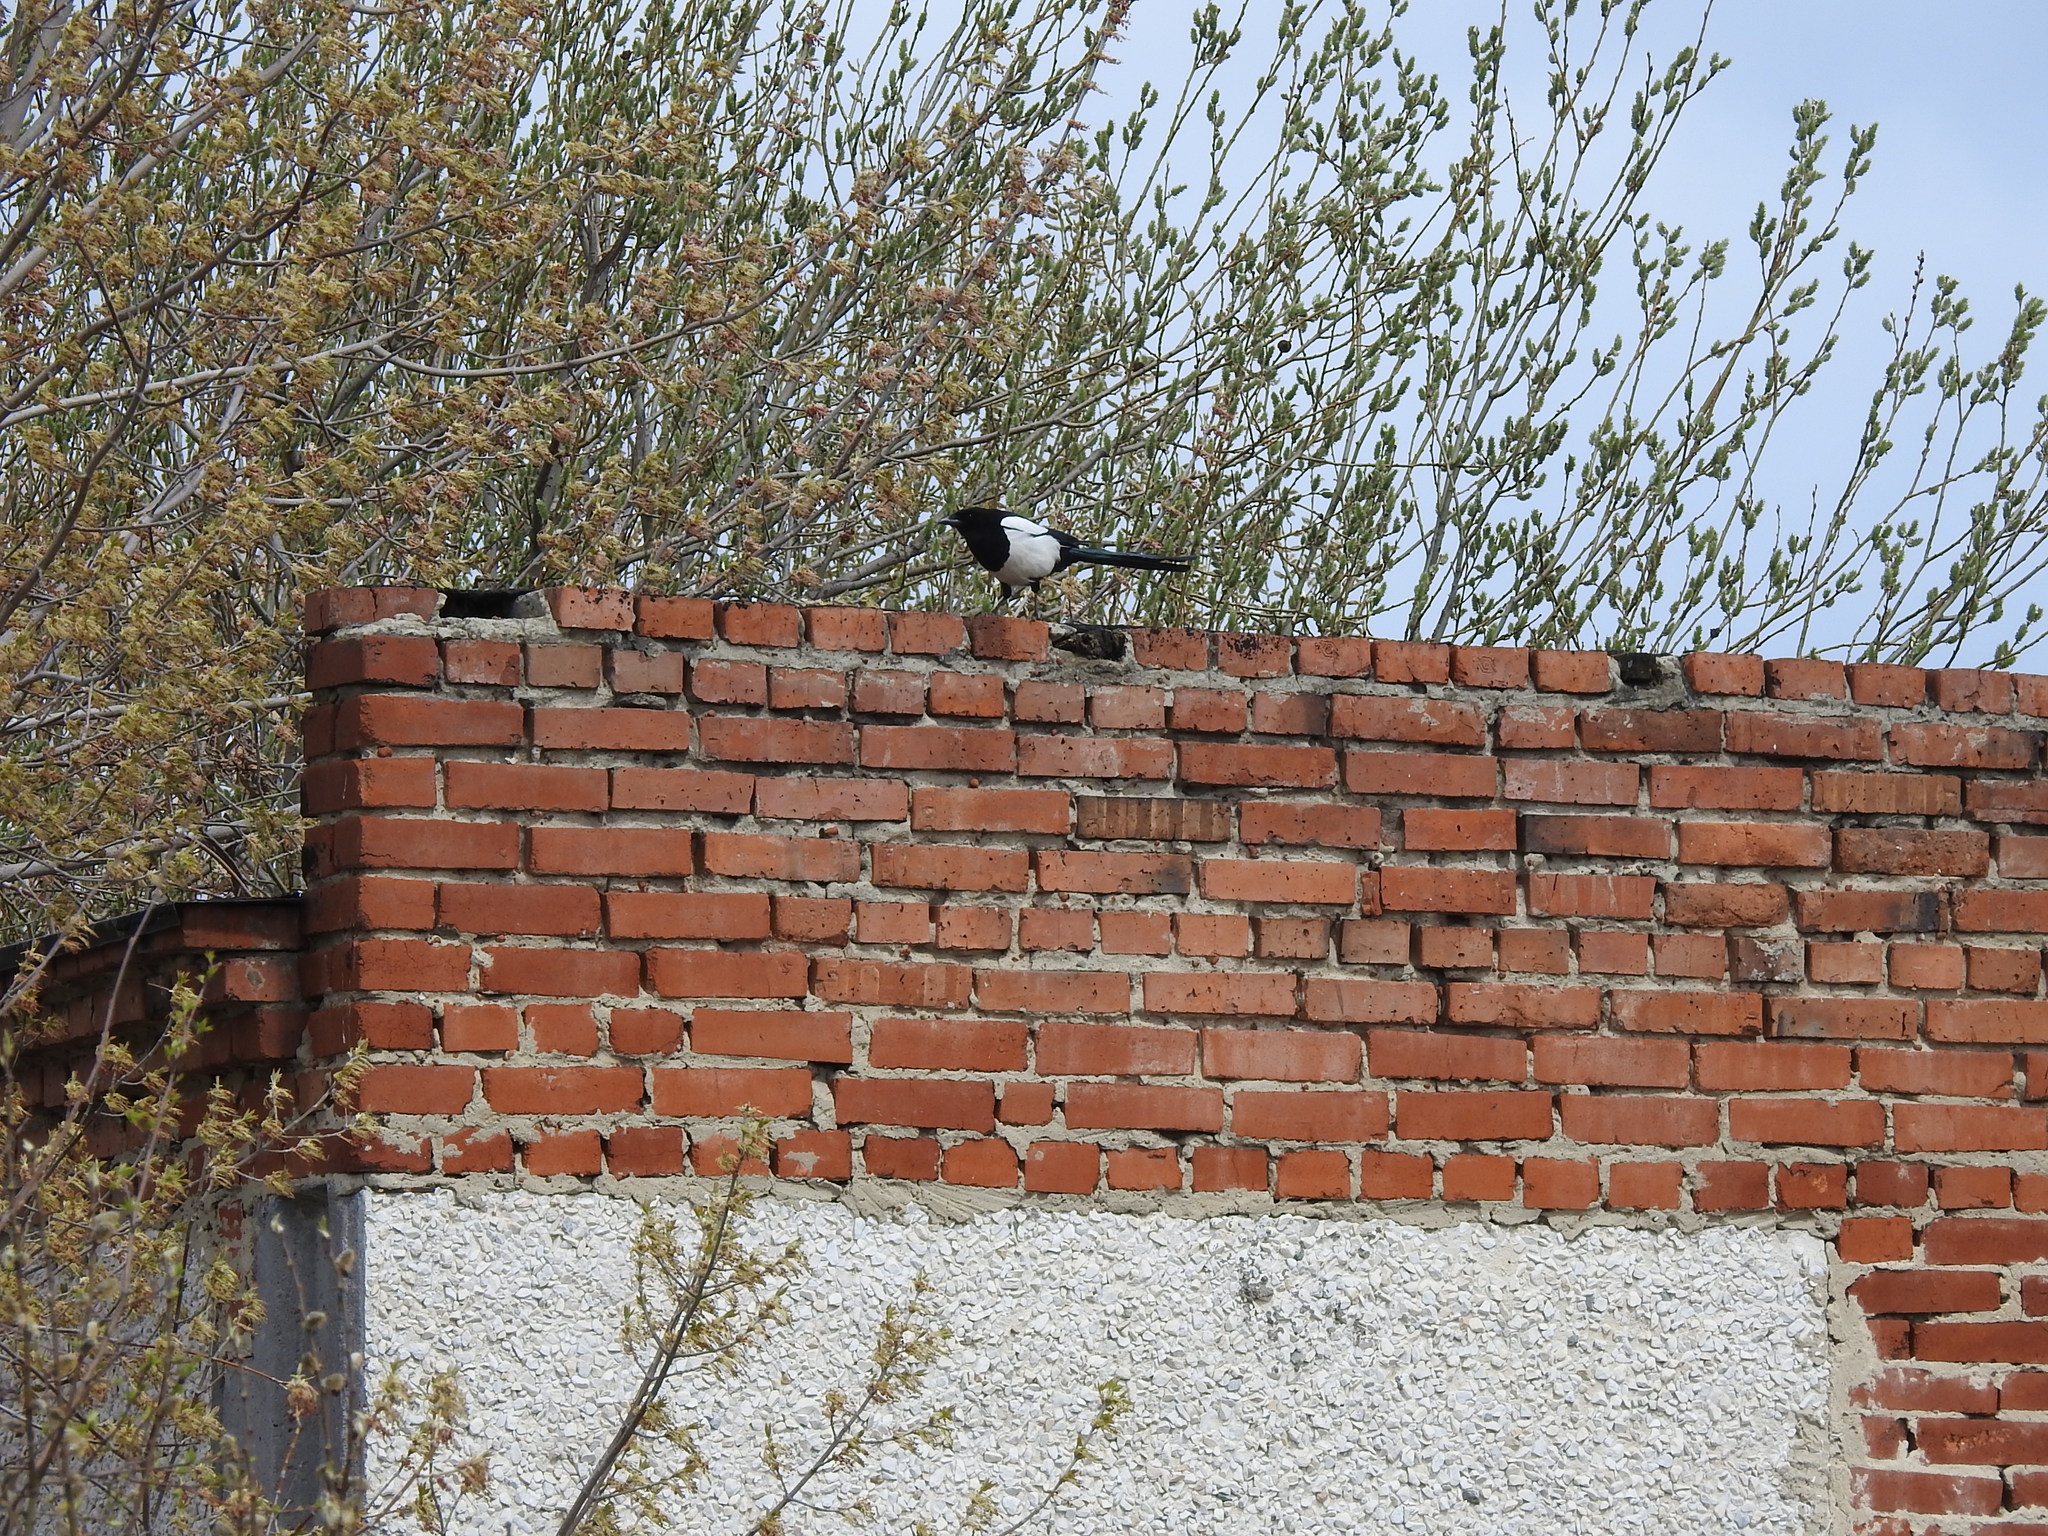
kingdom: Animalia
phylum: Chordata
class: Aves
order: Passeriformes
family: Corvidae
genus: Pica
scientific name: Pica pica
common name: Eurasian magpie
